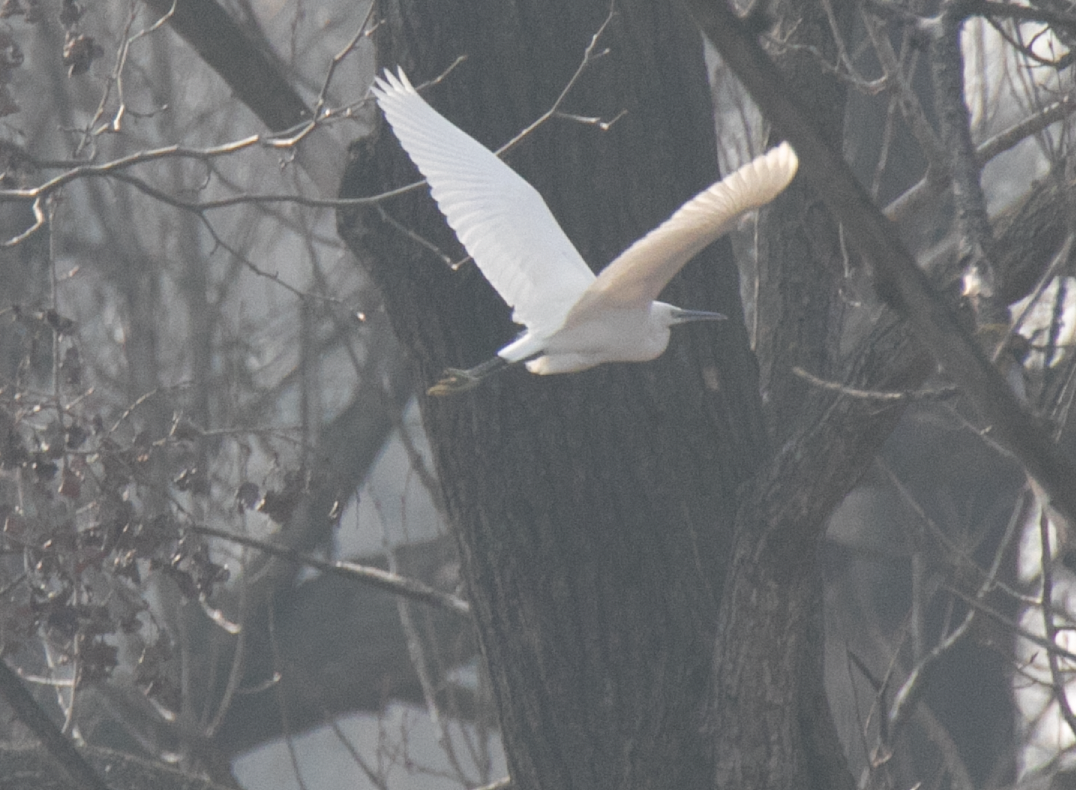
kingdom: Animalia
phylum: Chordata
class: Aves
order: Pelecaniformes
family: Ardeidae
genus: Egretta
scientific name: Egretta garzetta
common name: Little egret
